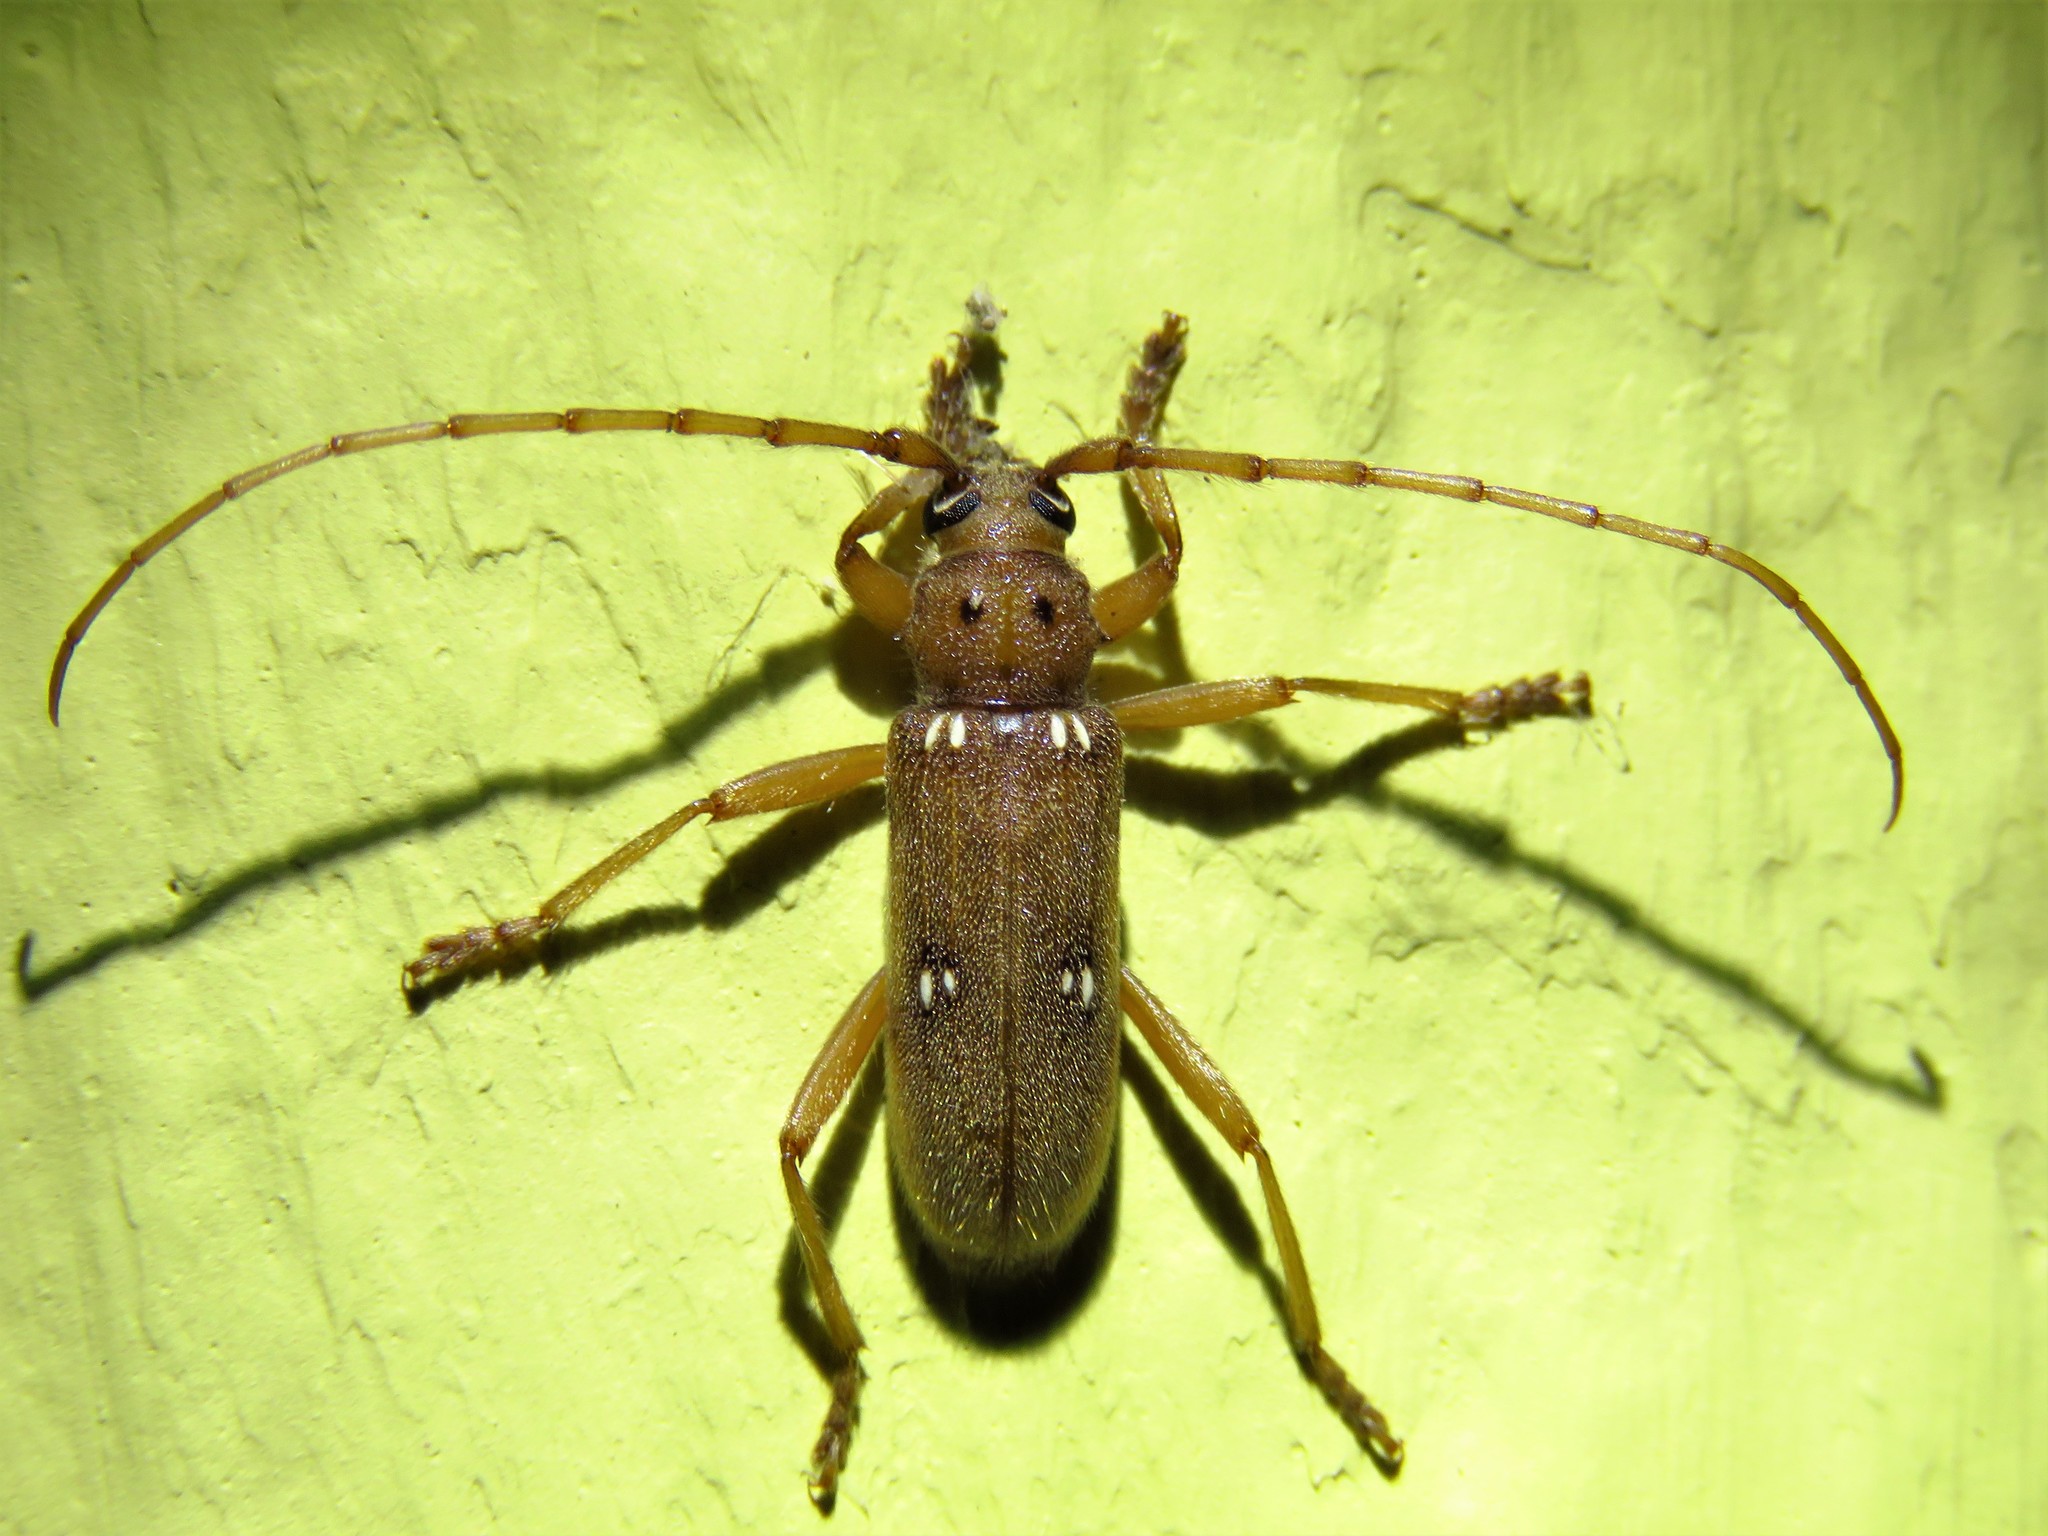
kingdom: Animalia
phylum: Arthropoda
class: Insecta
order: Coleoptera
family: Cerambycidae
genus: Eburia
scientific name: Eburia haldemani
